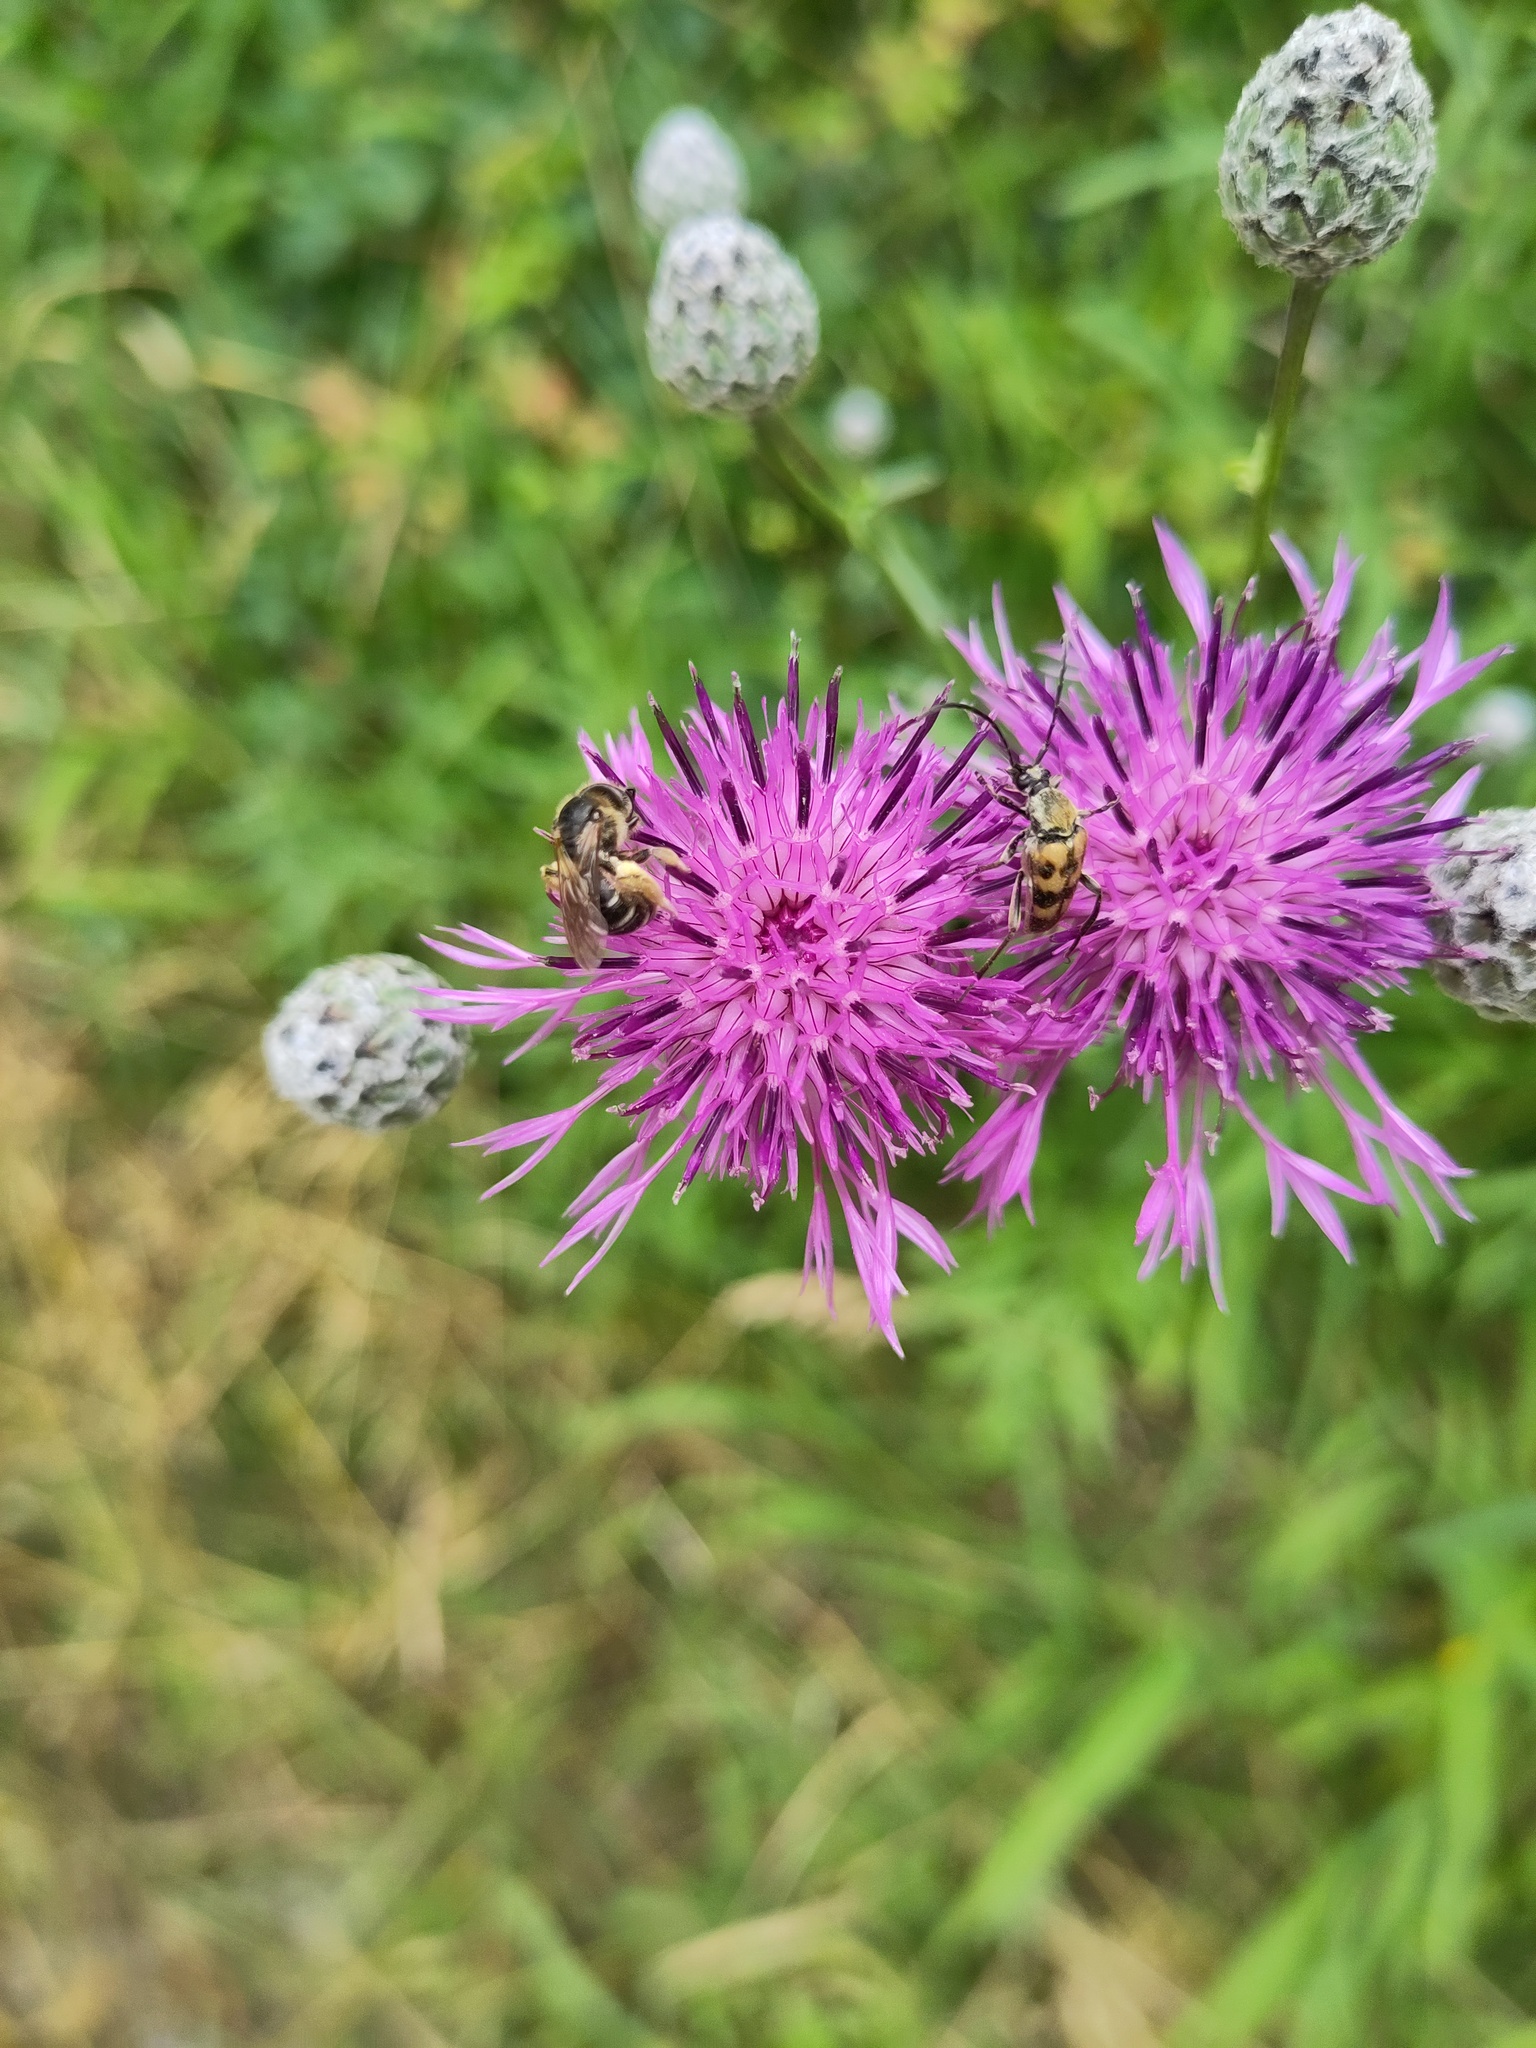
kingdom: Animalia
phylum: Arthropoda
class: Insecta
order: Coleoptera
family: Cerambycidae
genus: Pachytodes
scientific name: Pachytodes
